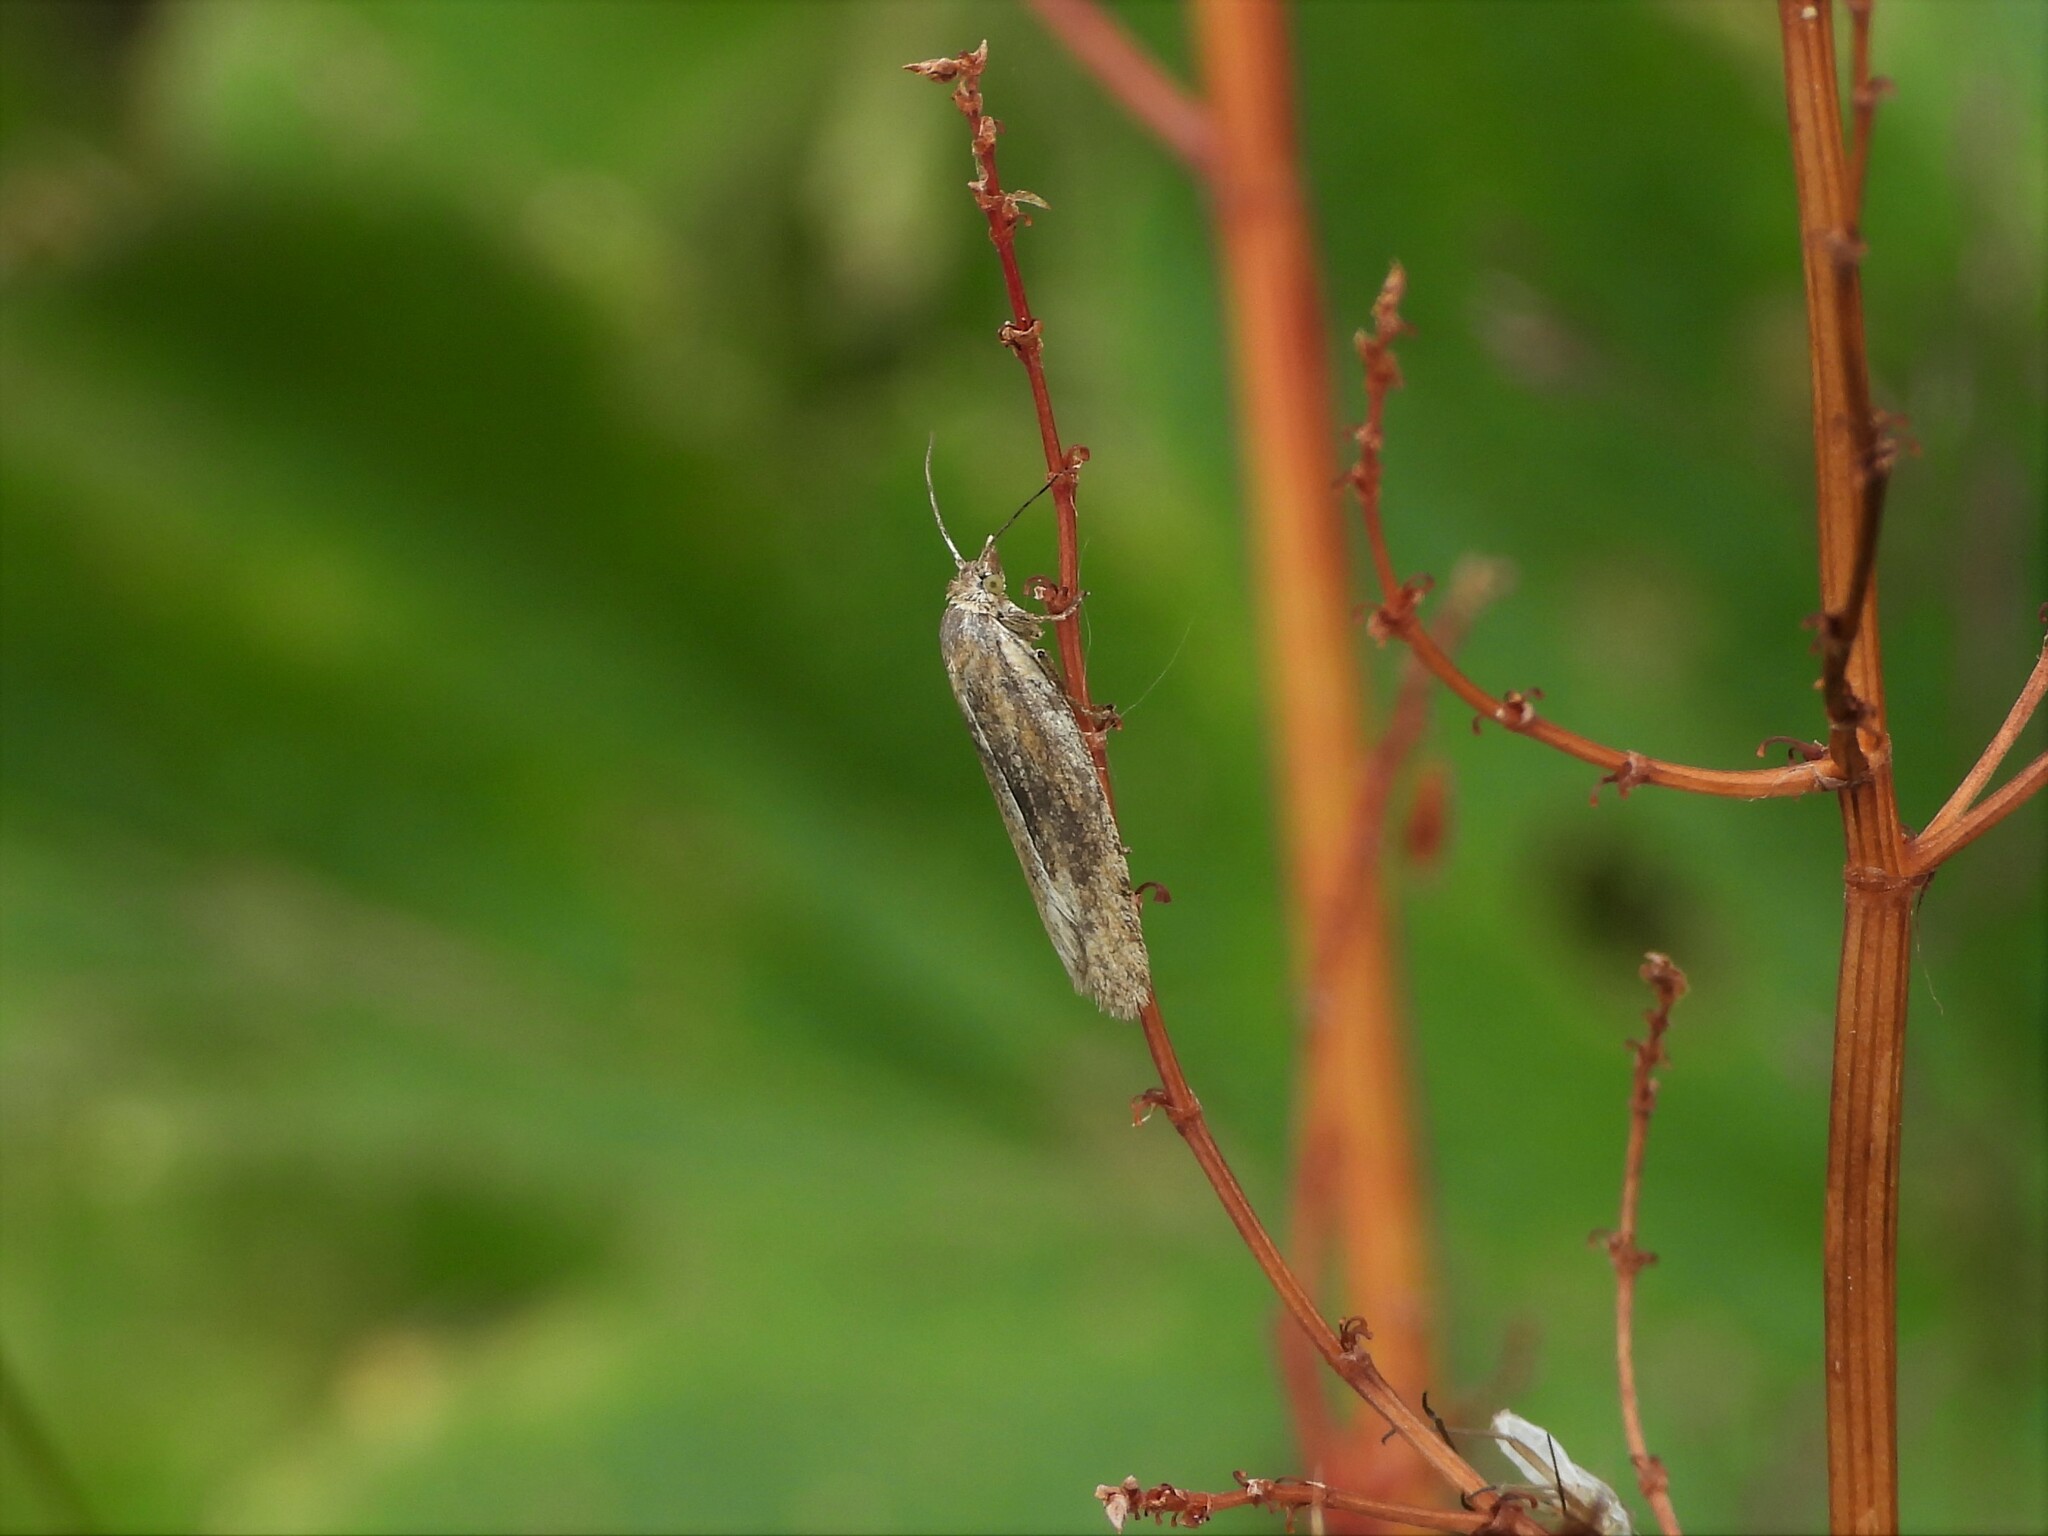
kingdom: Animalia
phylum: Arthropoda
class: Insecta
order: Lepidoptera
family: Tortricidae
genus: Eana
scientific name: Eana osseana
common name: Dotted shade
